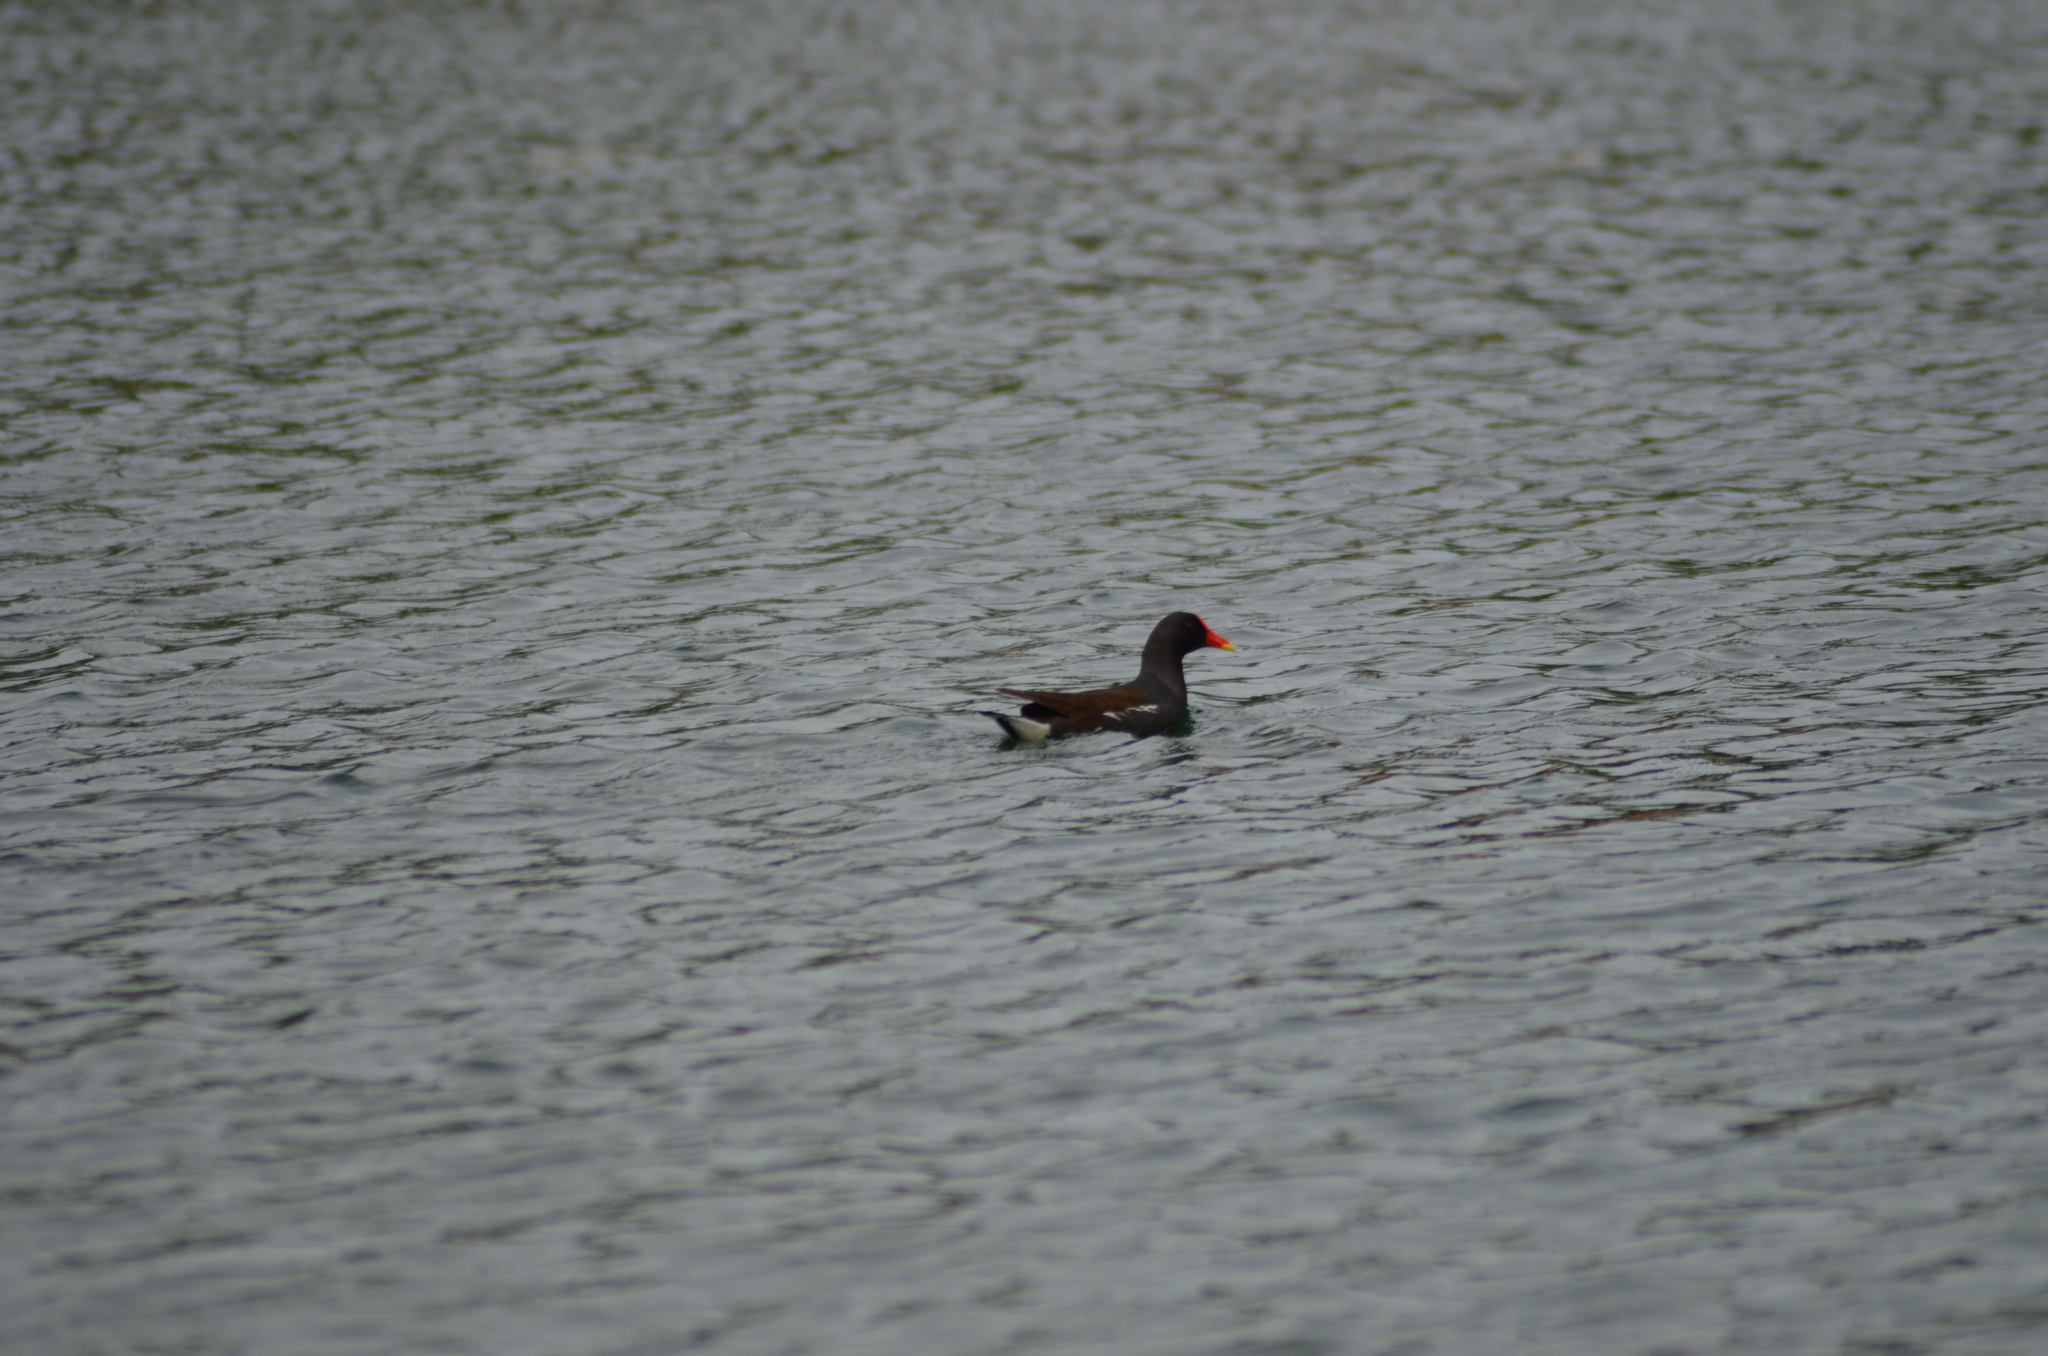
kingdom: Animalia
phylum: Chordata
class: Aves
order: Gruiformes
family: Rallidae
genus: Gallinula
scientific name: Gallinula chloropus
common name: Common moorhen
